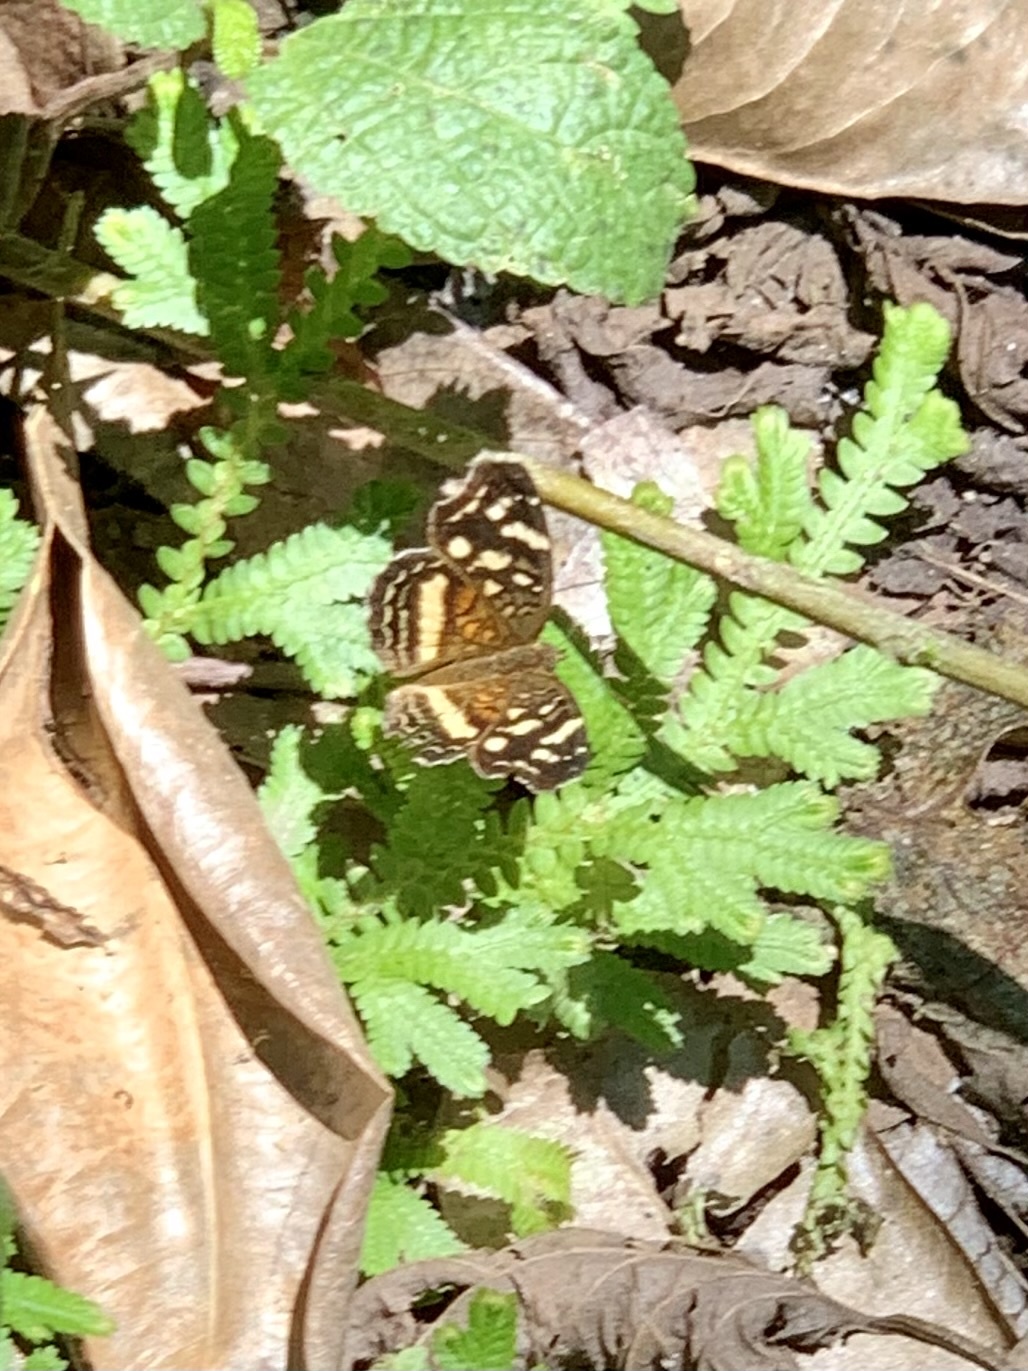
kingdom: Animalia
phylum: Arthropoda
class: Insecta
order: Lepidoptera
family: Nymphalidae
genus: Anthanassa
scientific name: Anthanassa tulcis
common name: Pale-banded crescent
